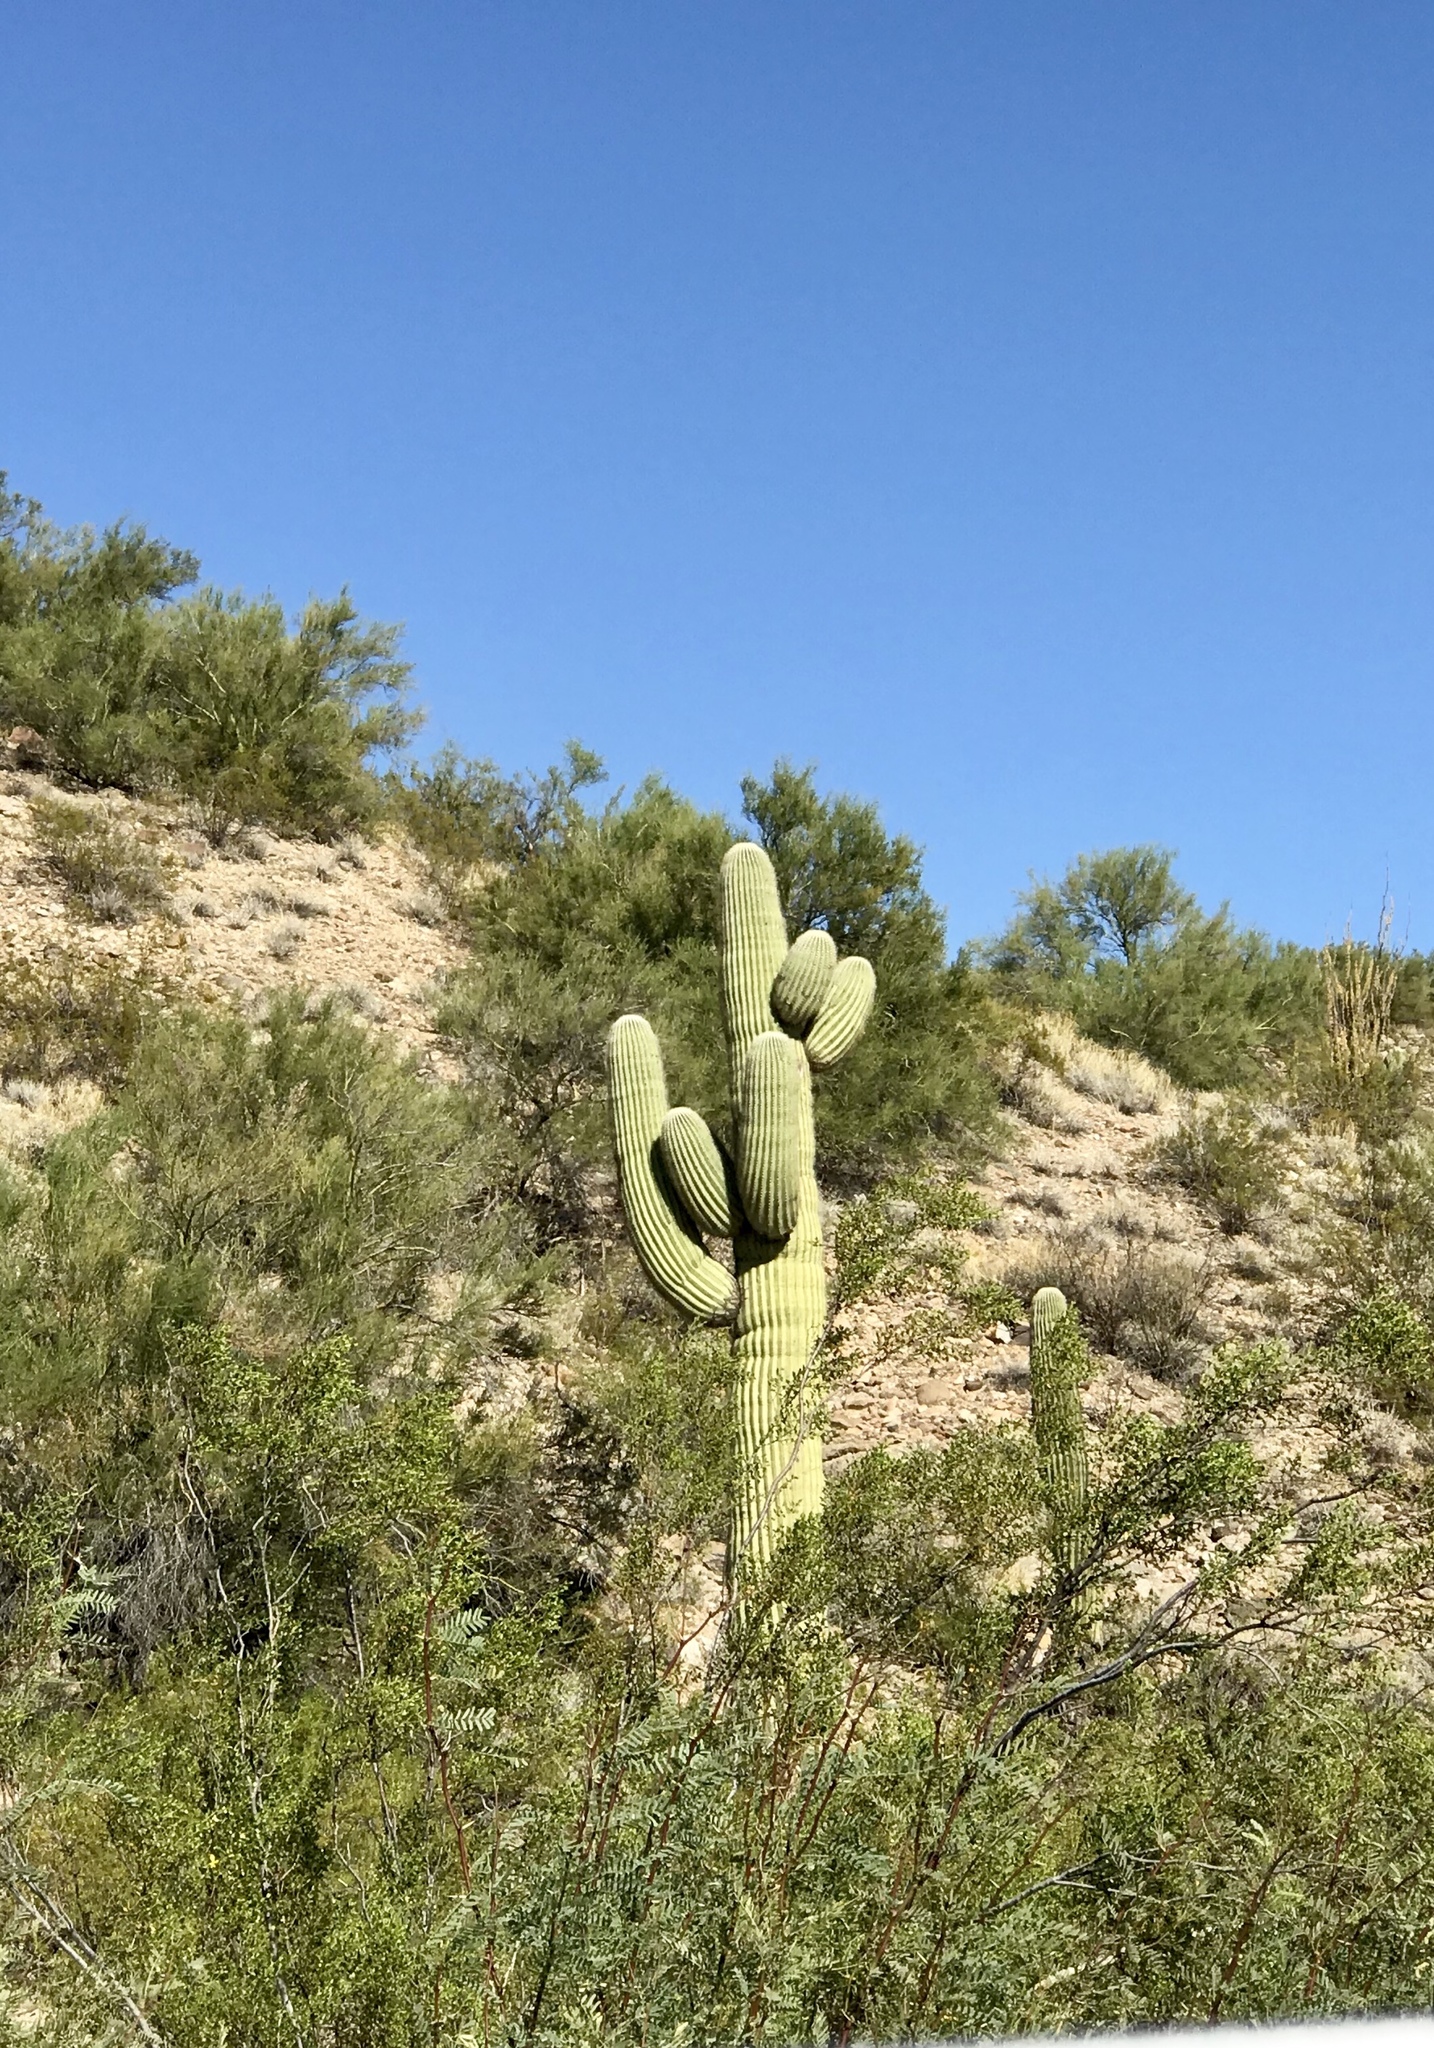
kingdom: Plantae
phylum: Tracheophyta
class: Magnoliopsida
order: Caryophyllales
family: Cactaceae
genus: Carnegiea
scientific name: Carnegiea gigantea
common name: Saguaro
